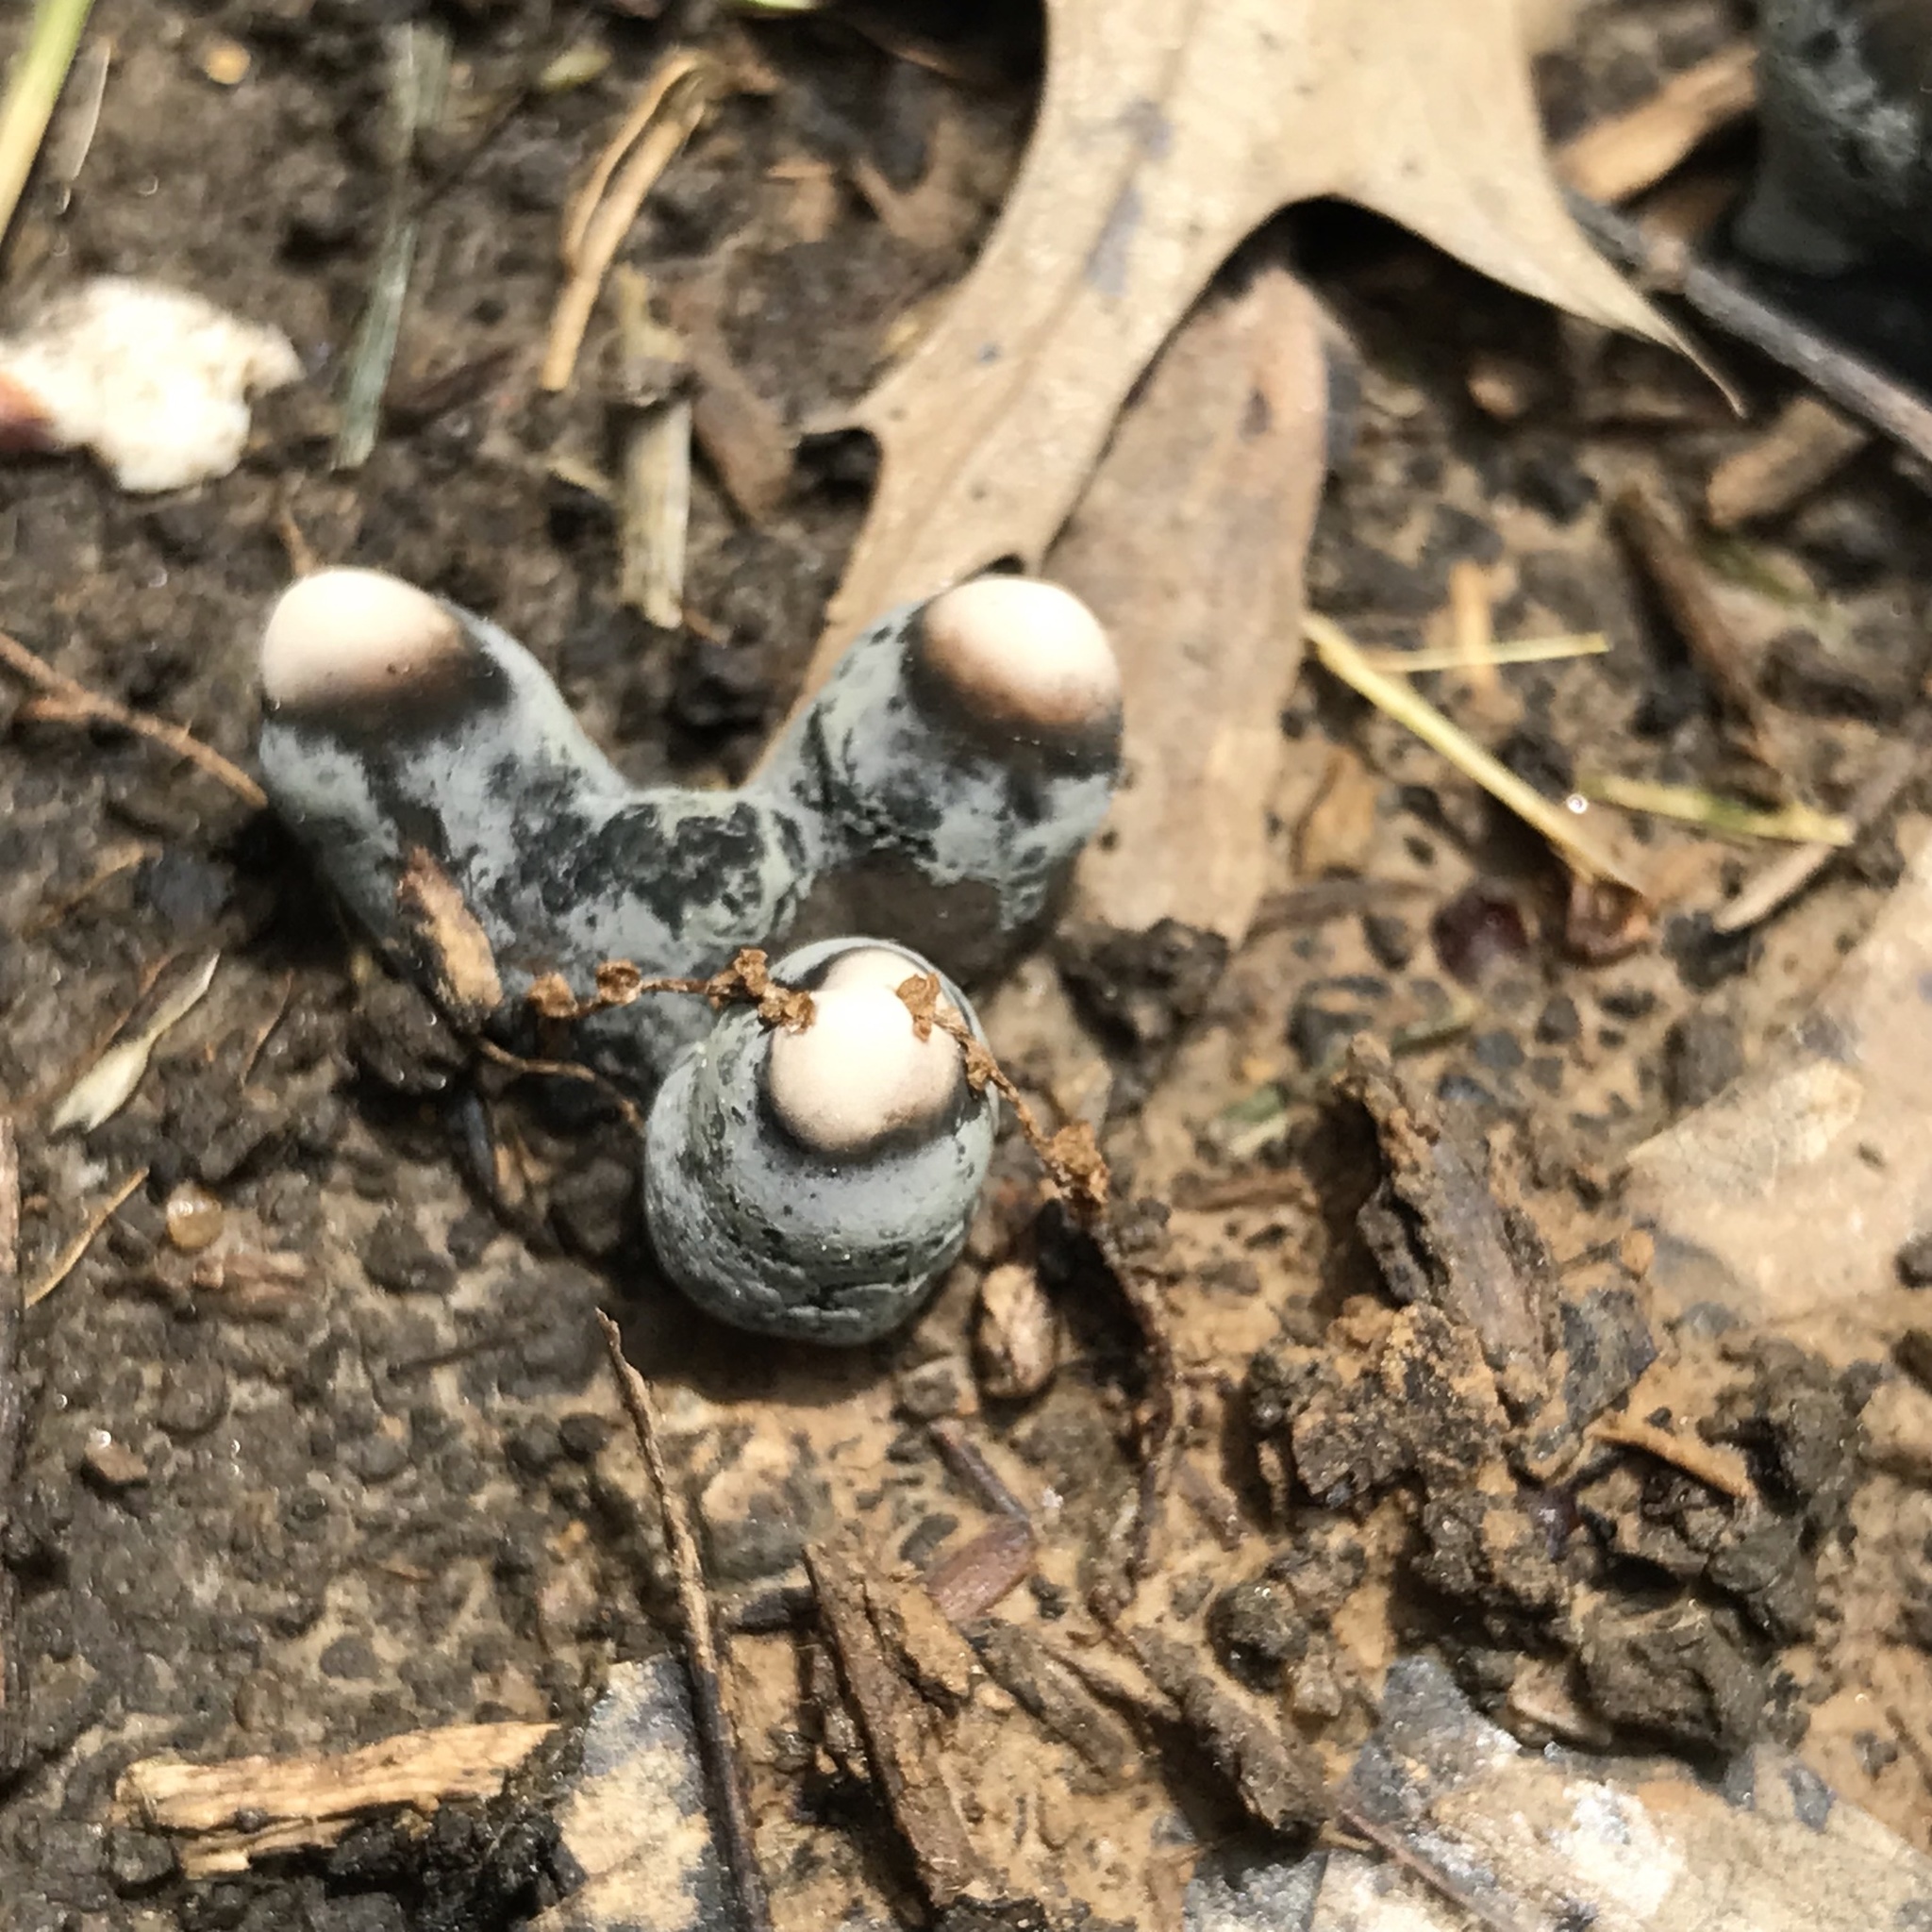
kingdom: Fungi
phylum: Ascomycota
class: Sordariomycetes
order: Xylariales
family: Xylariaceae
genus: Xylaria
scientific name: Xylaria polymorpha
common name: Dead man's fingers
